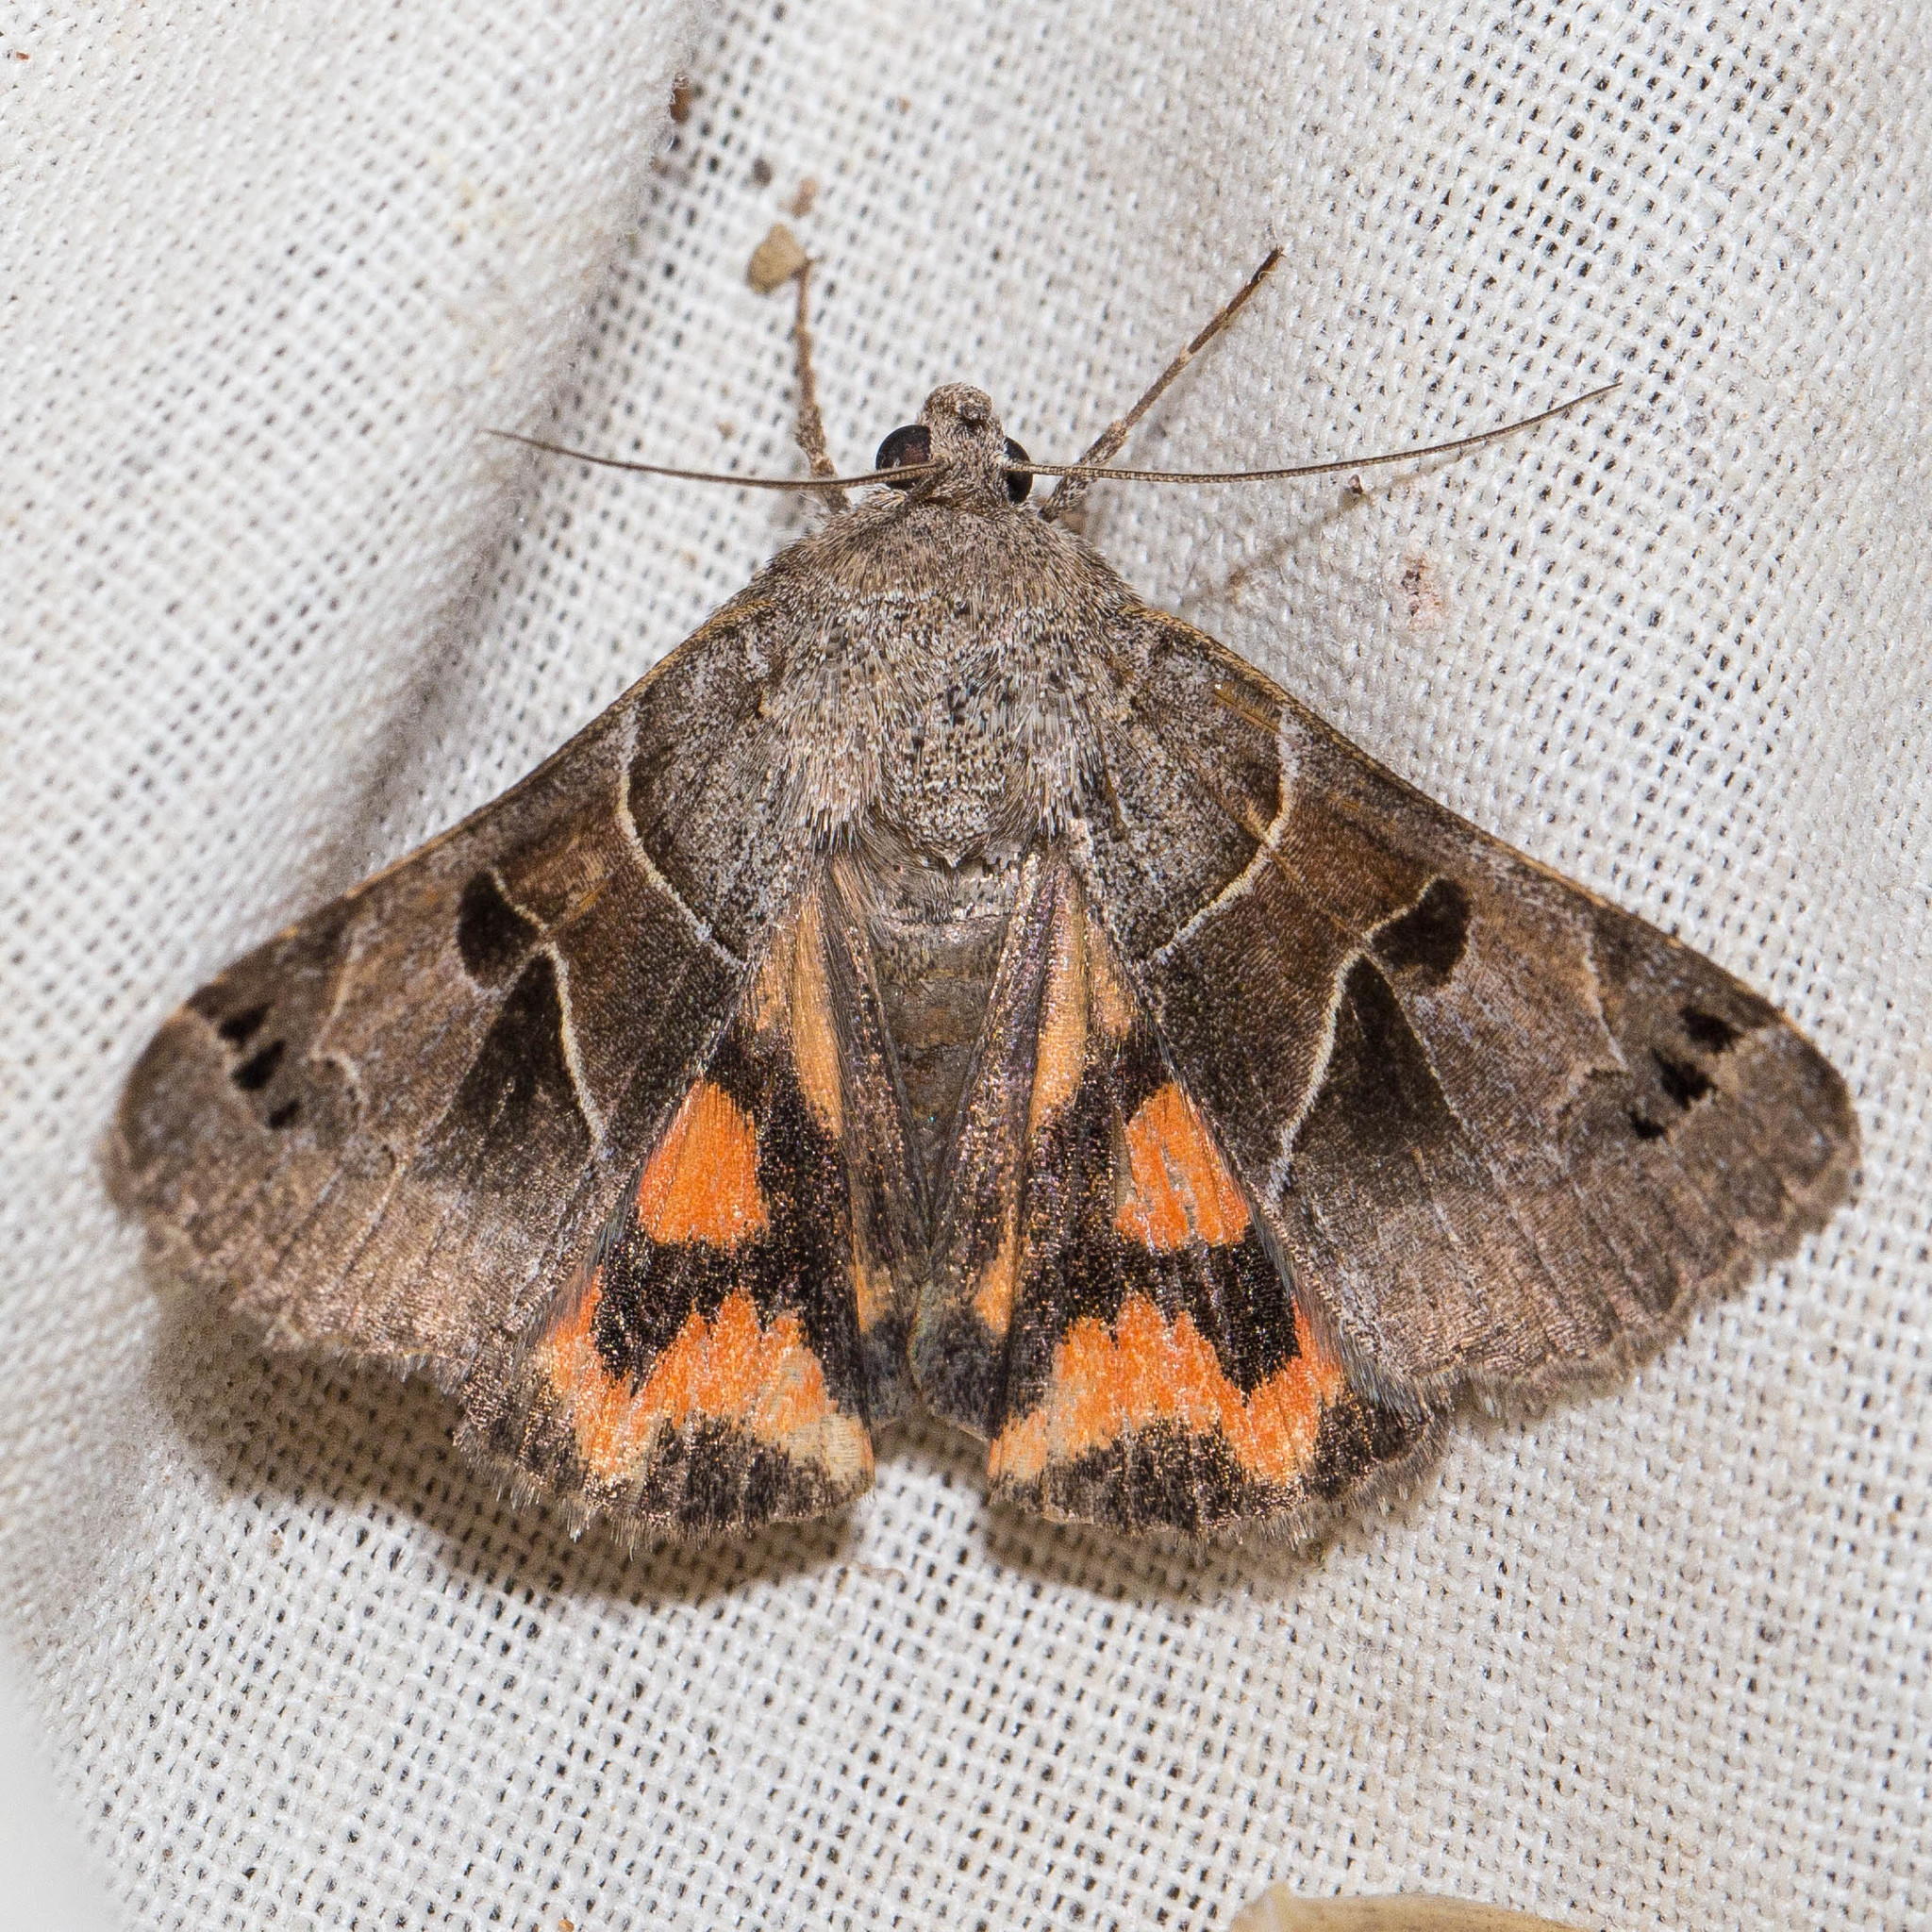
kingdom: Animalia
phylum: Arthropoda
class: Insecta
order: Lepidoptera
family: Erebidae
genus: Drasteria
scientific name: Drasteria edwardsii
